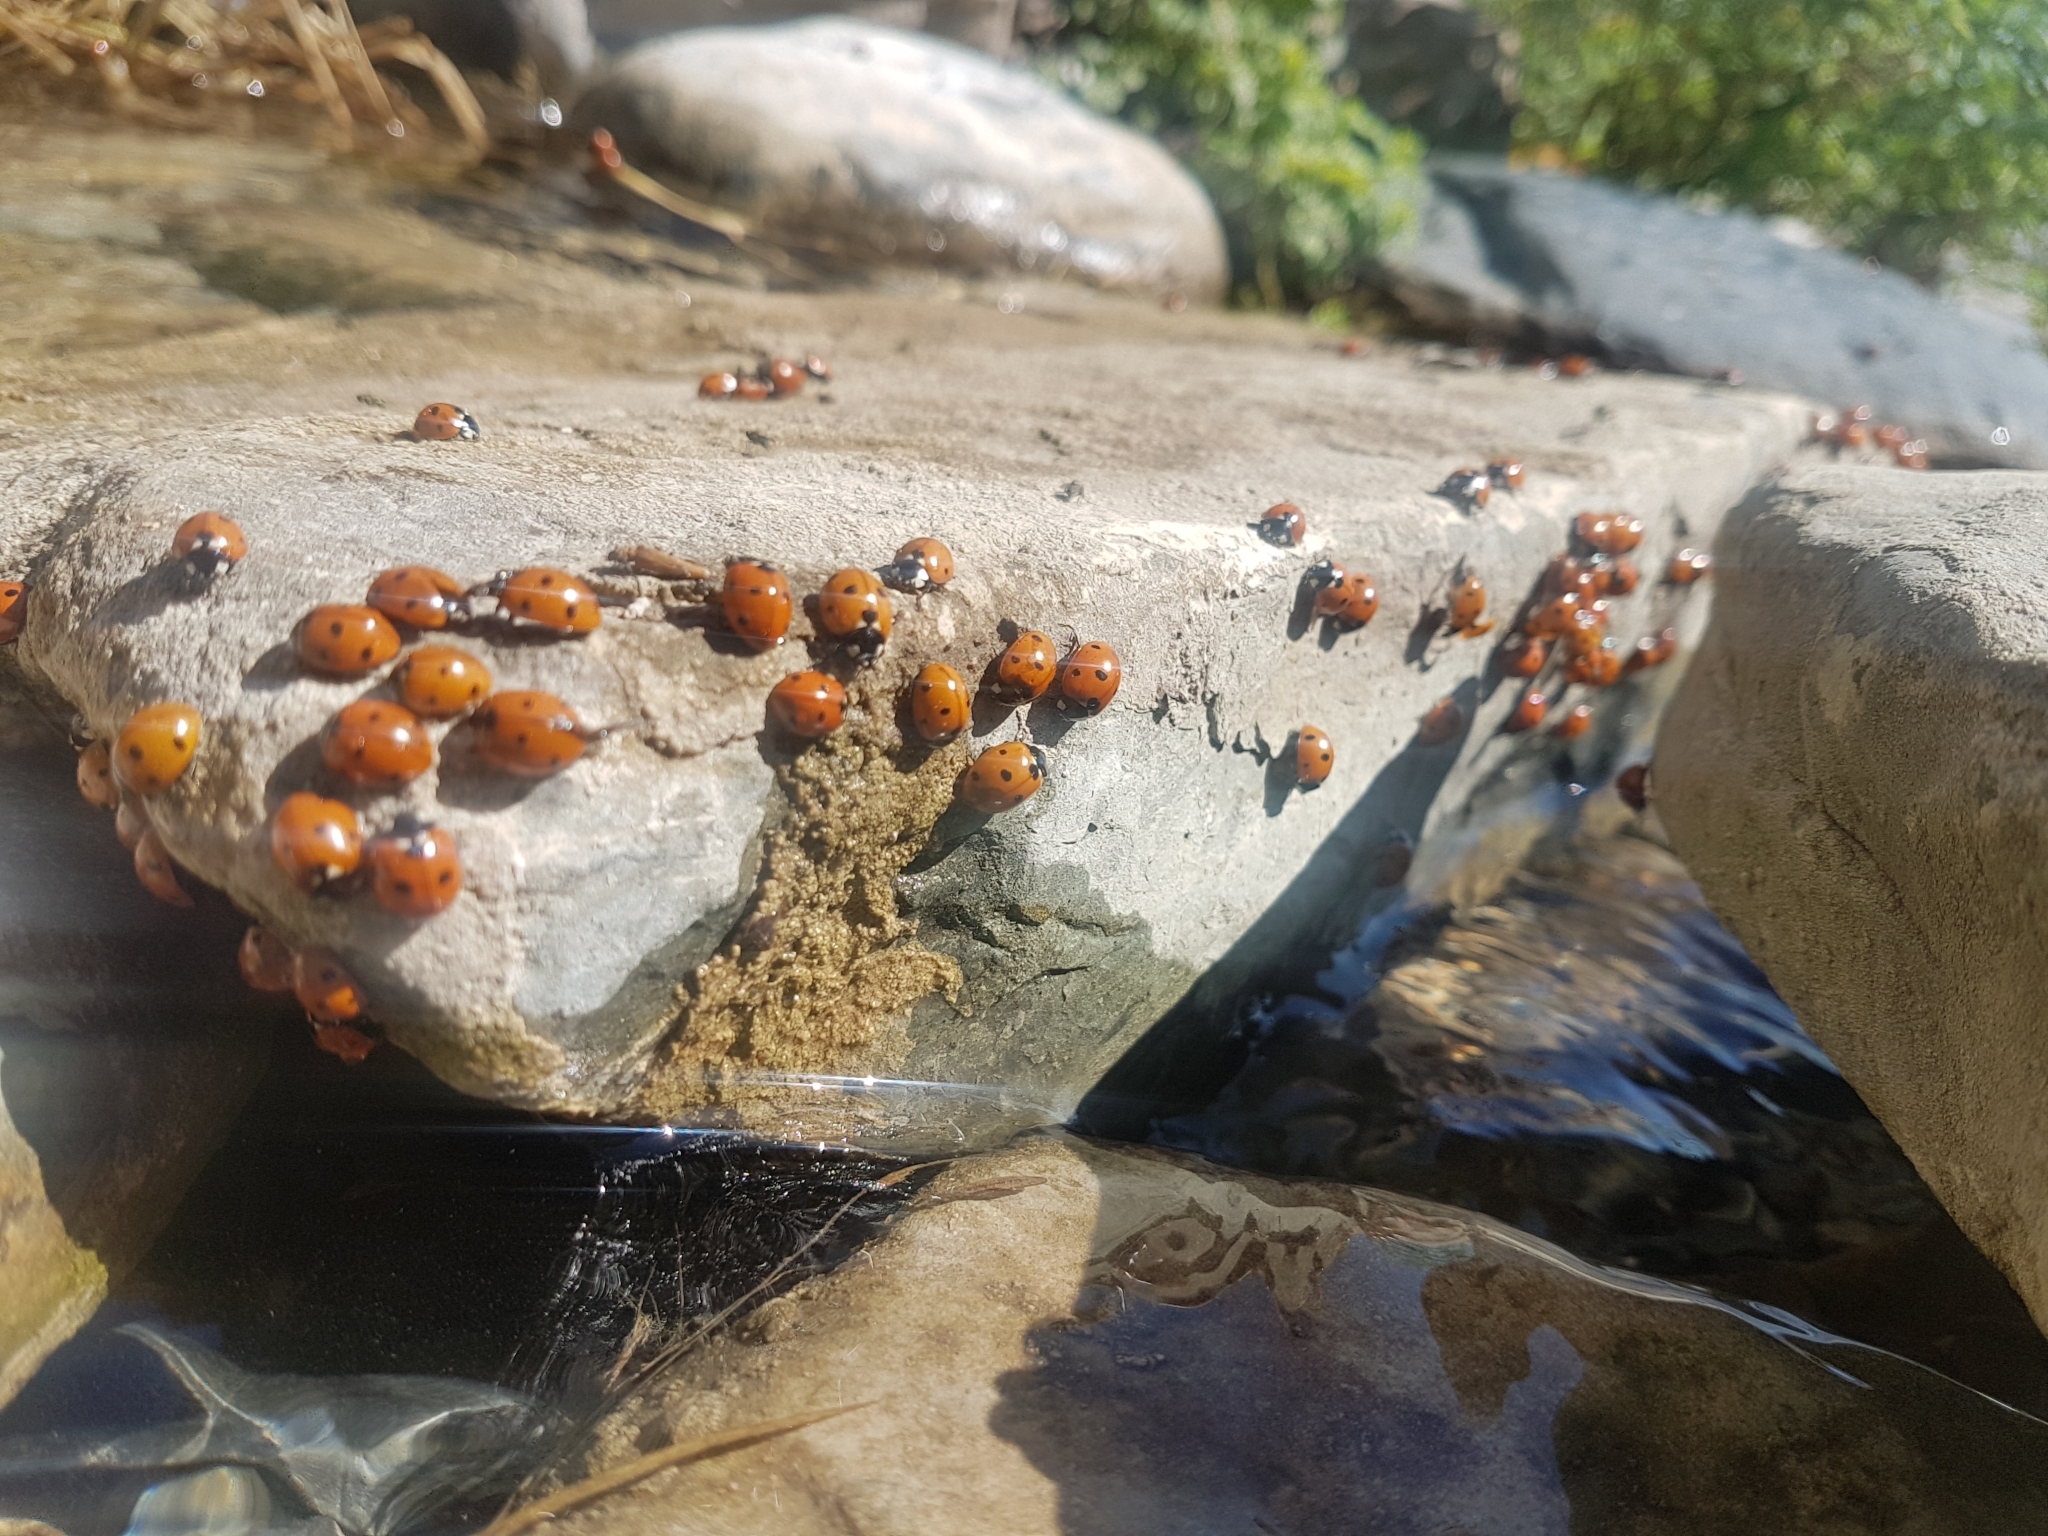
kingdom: Animalia
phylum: Arthropoda
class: Insecta
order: Coleoptera
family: Coccinellidae
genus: Coccinella
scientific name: Coccinella septempunctata
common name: Sevenspotted lady beetle
